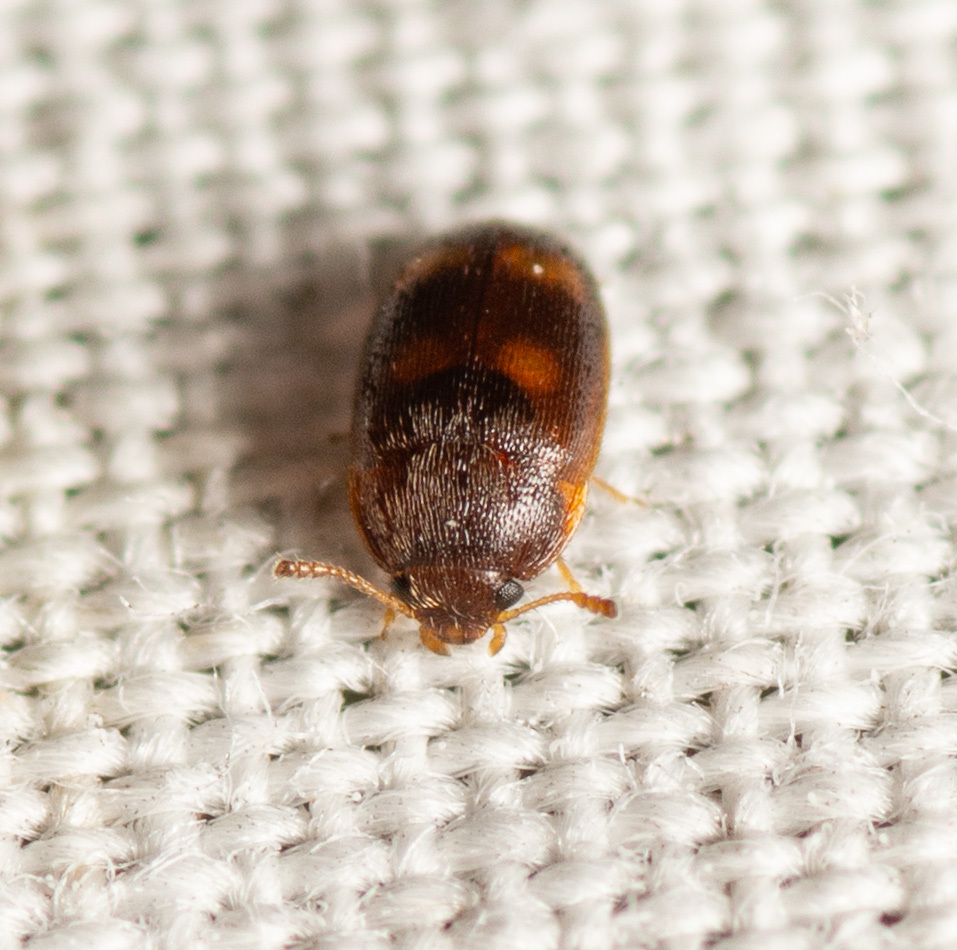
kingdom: Animalia
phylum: Arthropoda
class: Insecta
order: Coleoptera
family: Mycetophagidae
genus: Litargus
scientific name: Litargus tetraspilotus
